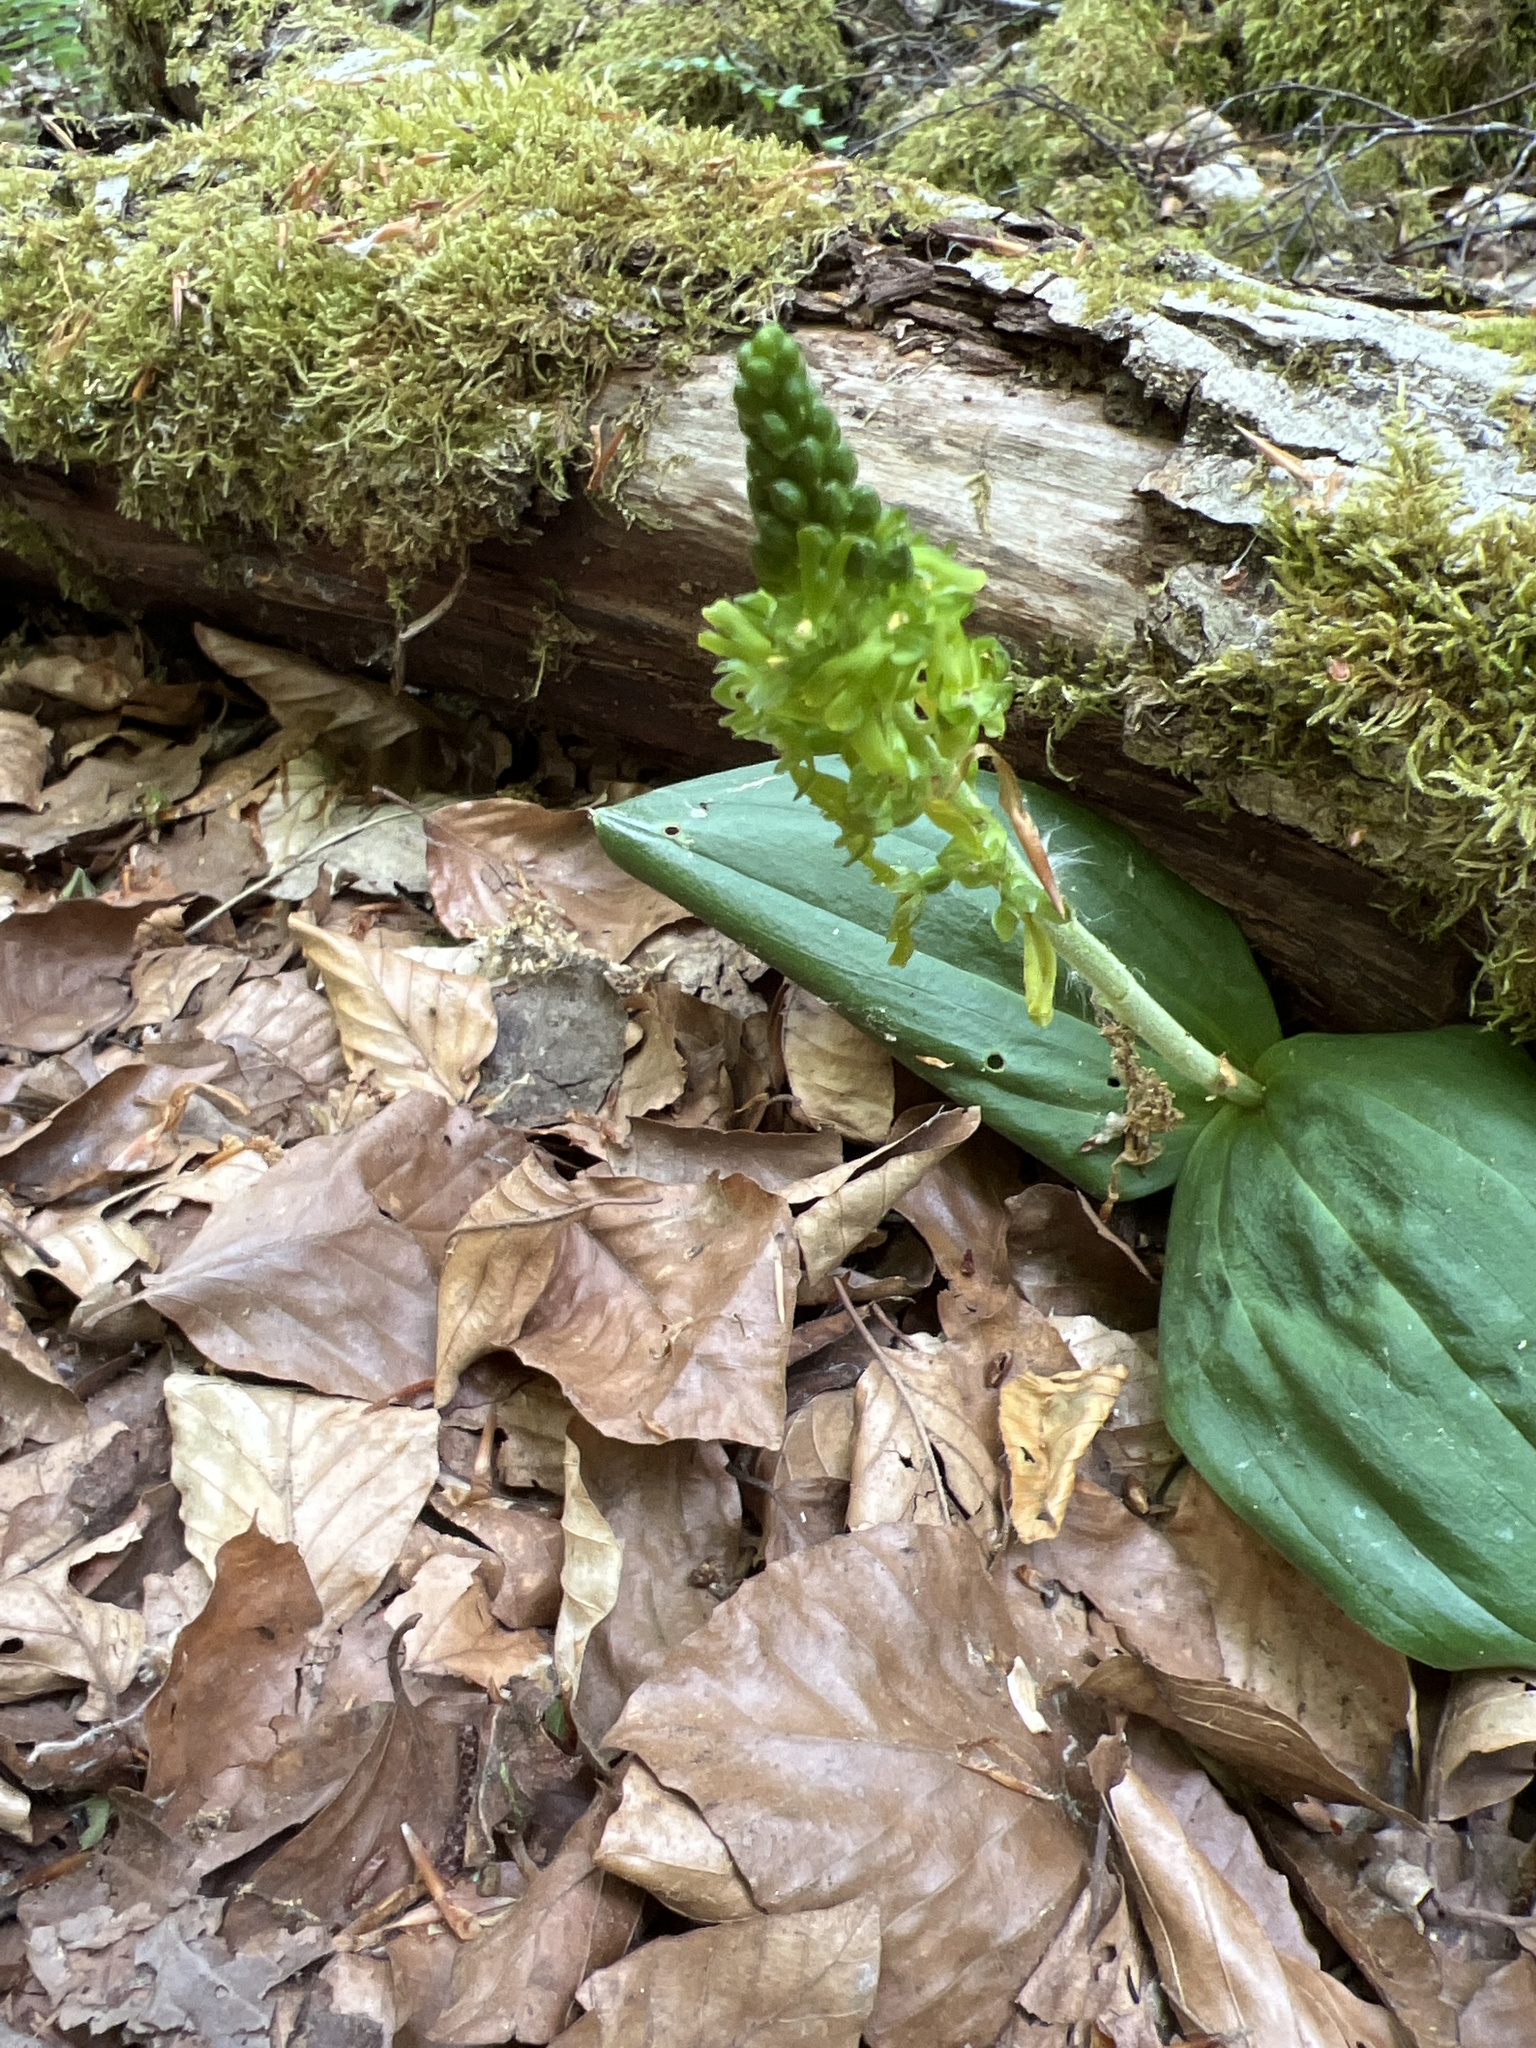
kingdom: Plantae
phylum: Tracheophyta
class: Liliopsida
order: Asparagales
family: Orchidaceae
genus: Neottia
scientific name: Neottia ovata
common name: Common twayblade
